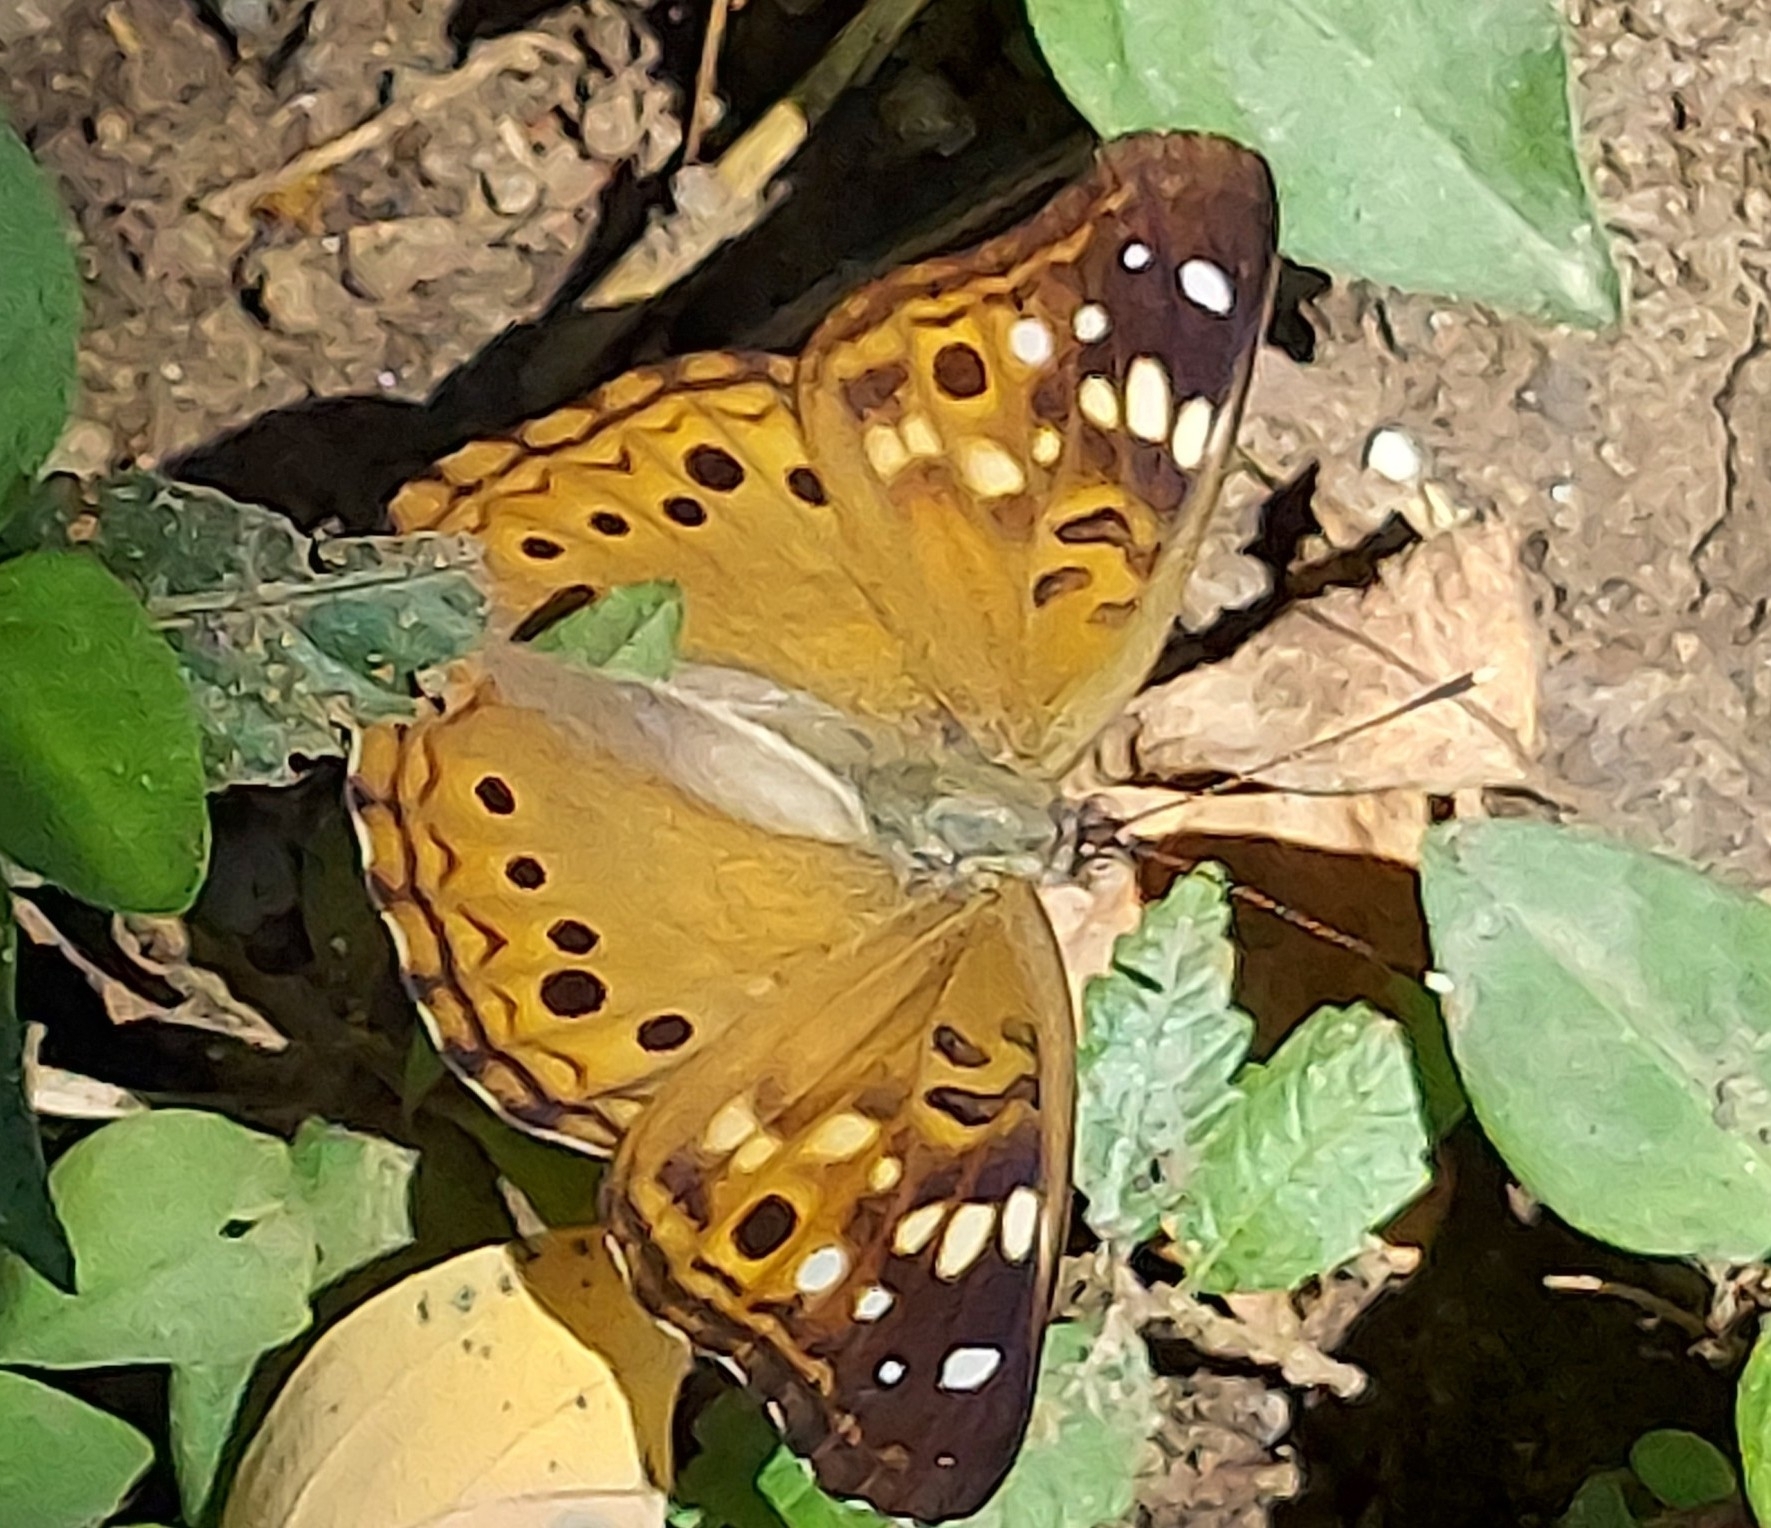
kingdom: Animalia
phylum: Arthropoda
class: Insecta
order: Lepidoptera
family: Nymphalidae
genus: Asterocampa
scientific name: Asterocampa celtis
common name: Hackberry emperor
